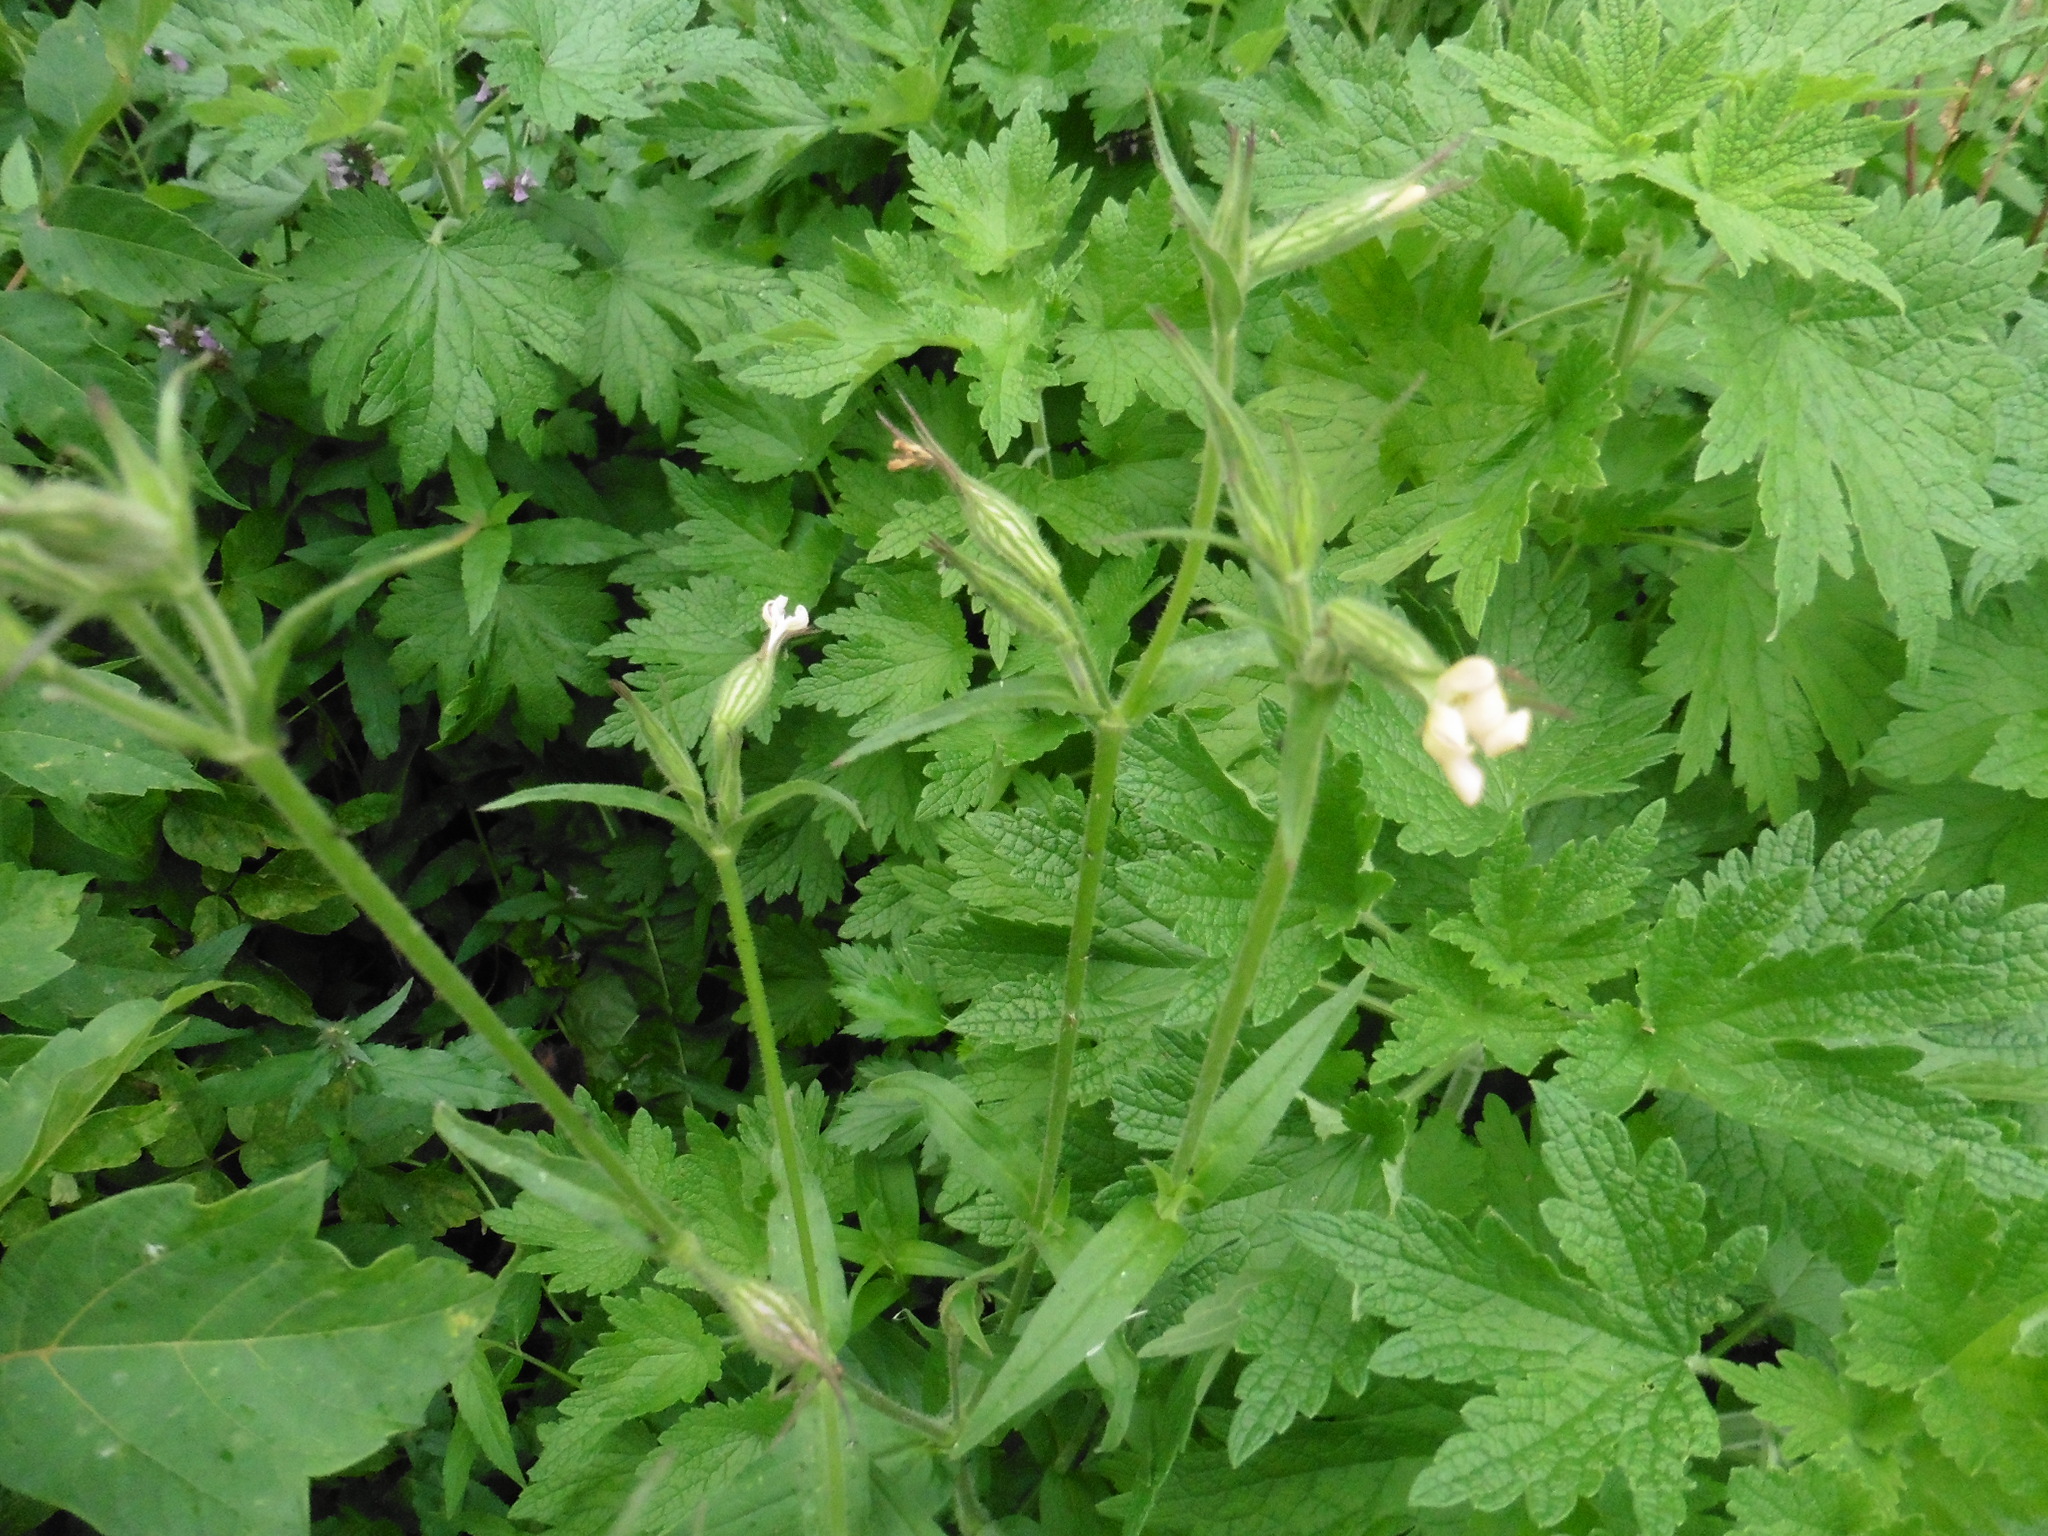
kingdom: Plantae
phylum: Tracheophyta
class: Magnoliopsida
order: Caryophyllales
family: Caryophyllaceae
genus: Silene
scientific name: Silene noctiflora
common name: Night-flowering catchfly
